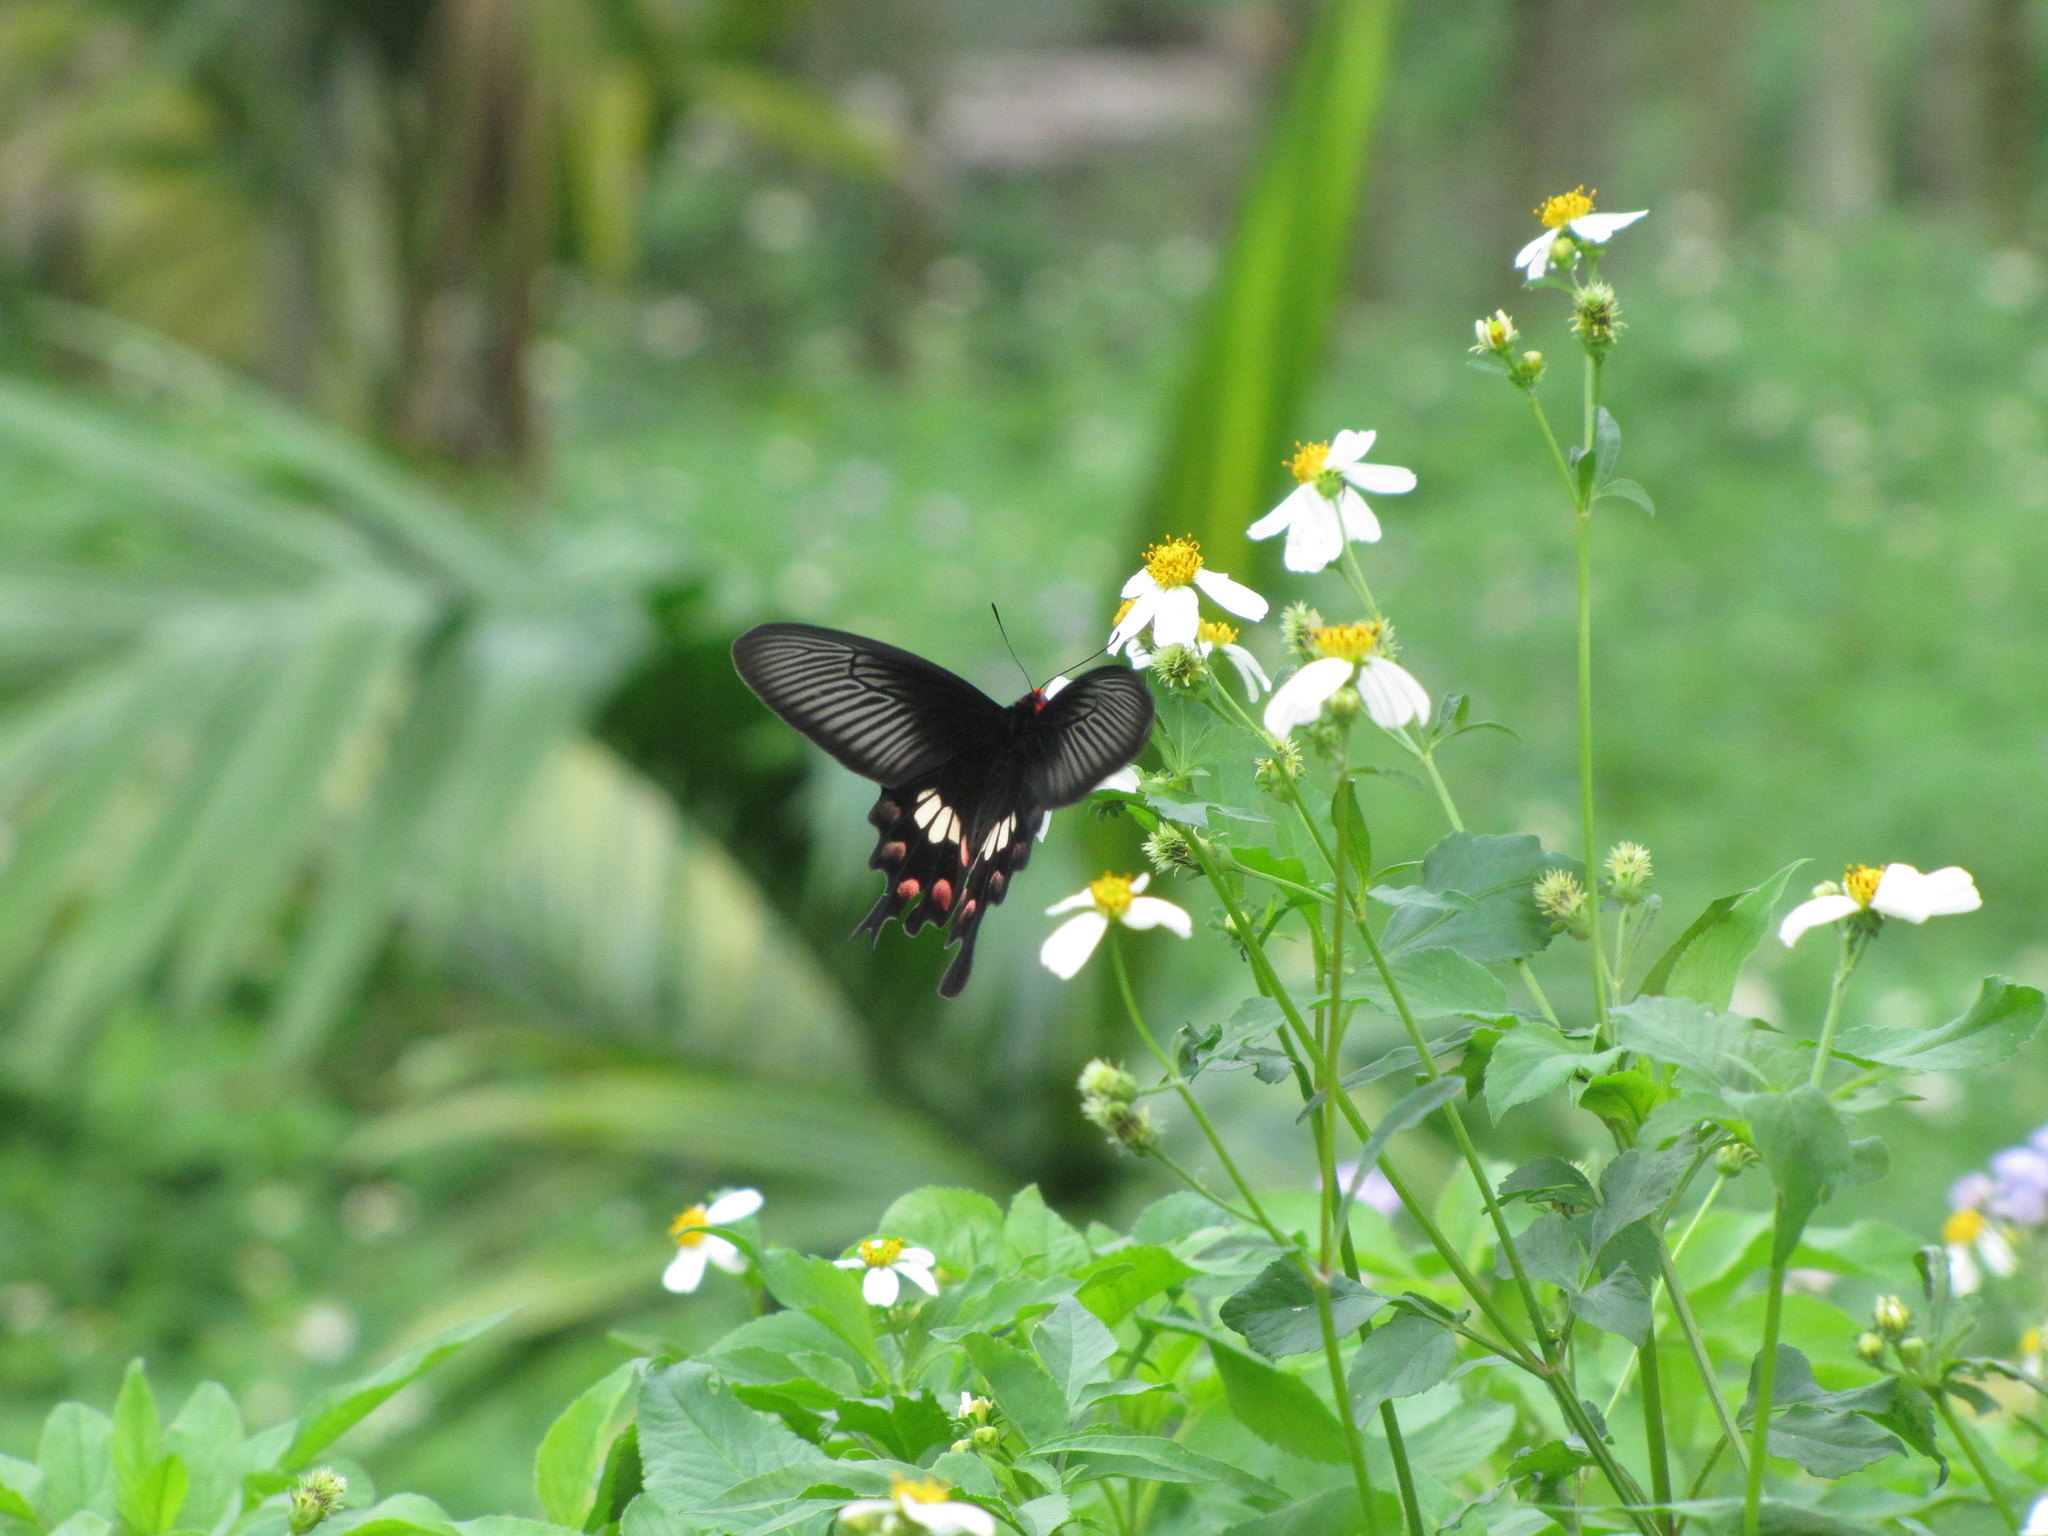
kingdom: Animalia
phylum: Arthropoda
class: Insecta
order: Lepidoptera
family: Papilionidae
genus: Pachliopta
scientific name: Pachliopta aristolochiae
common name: Common rose
